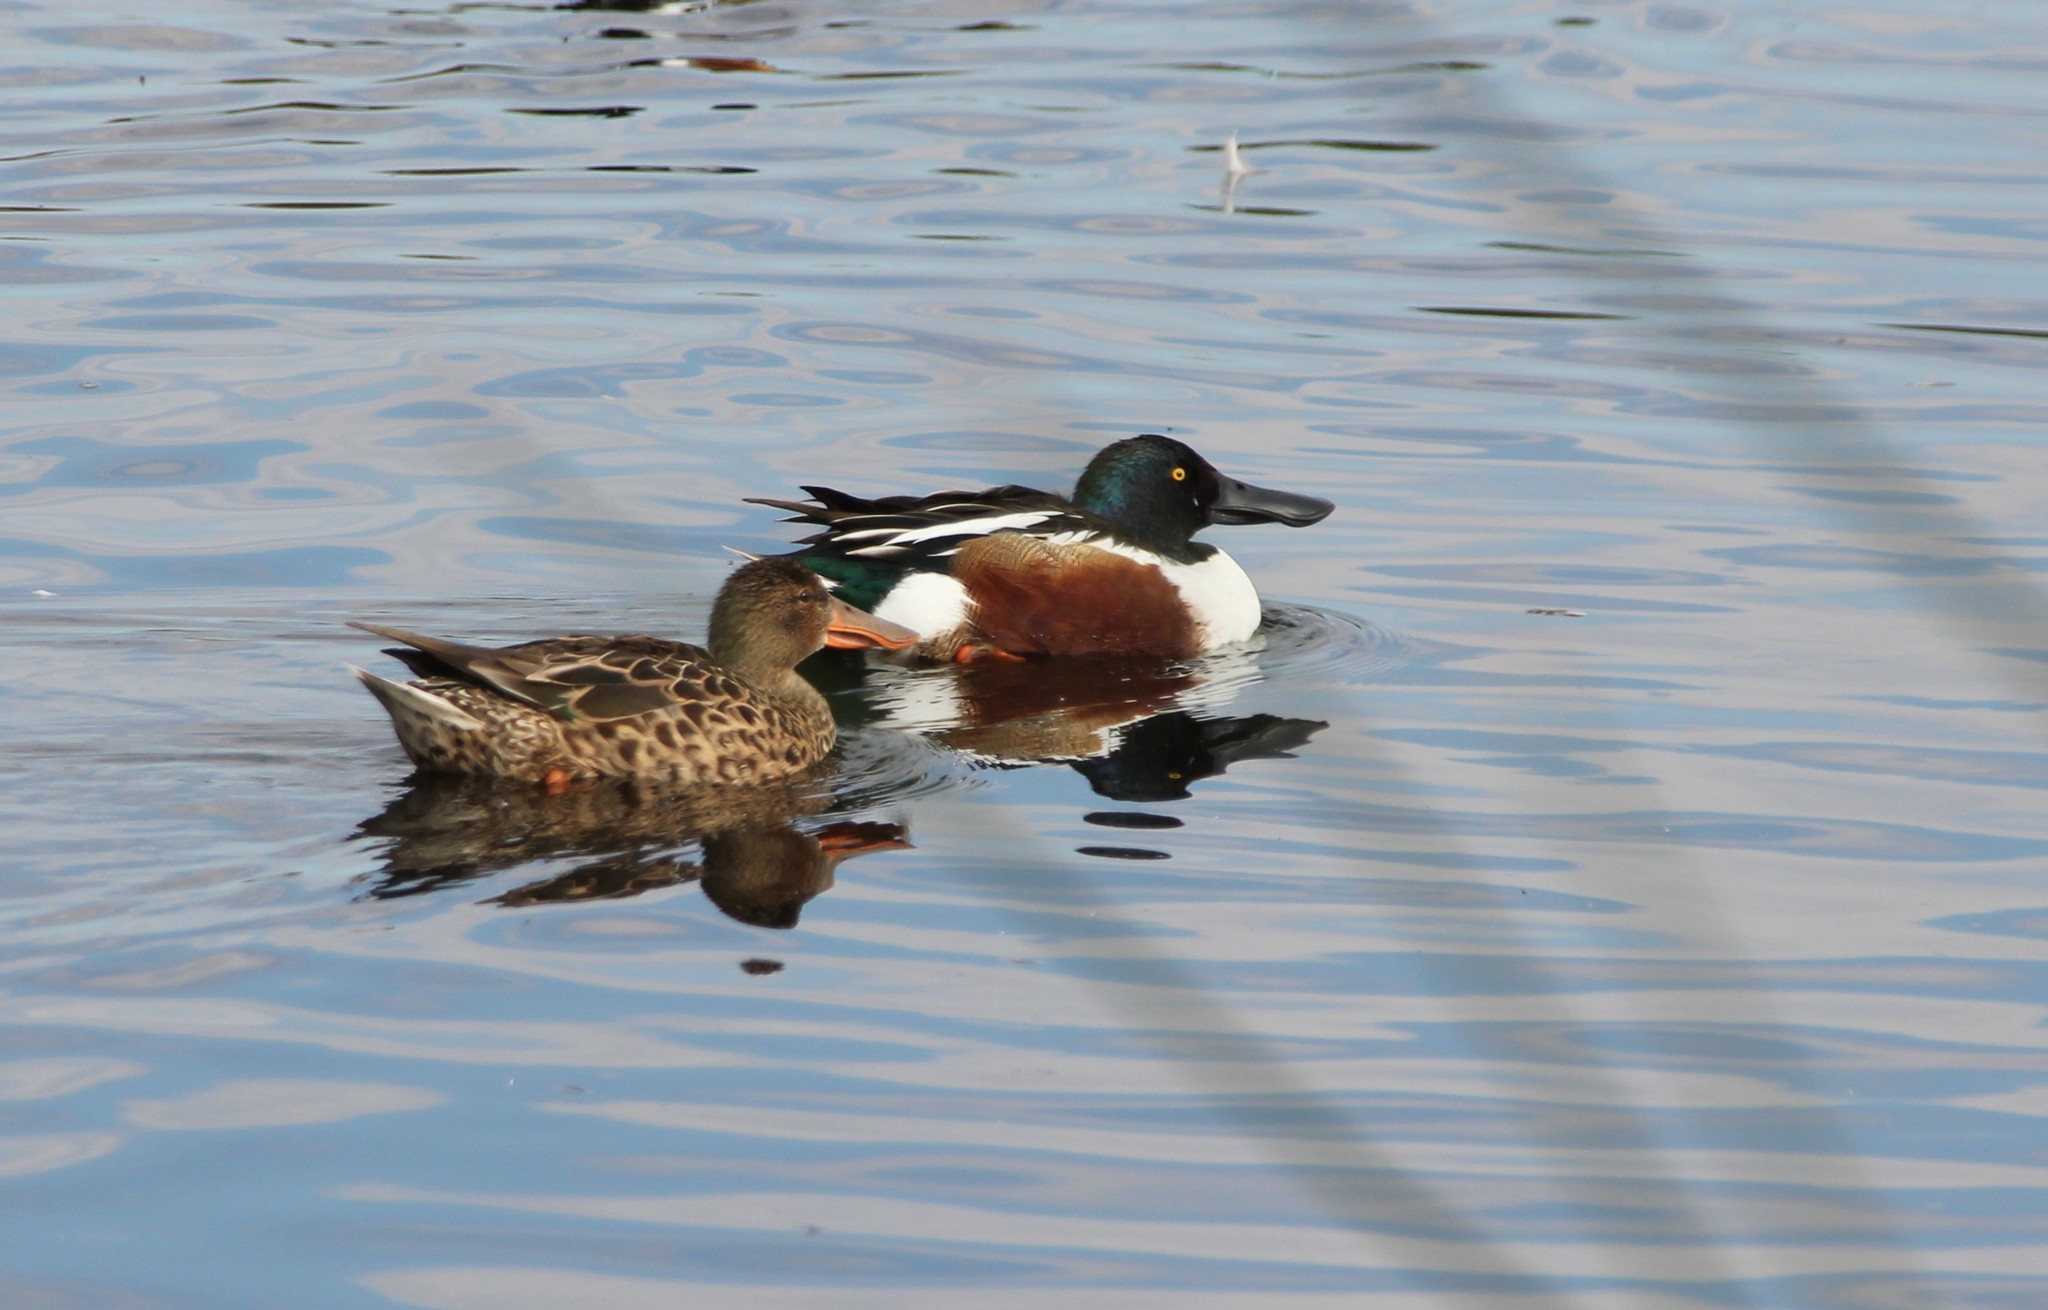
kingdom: Animalia
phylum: Chordata
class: Aves
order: Anseriformes
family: Anatidae
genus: Spatula
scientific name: Spatula clypeata
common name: Northern shoveler
